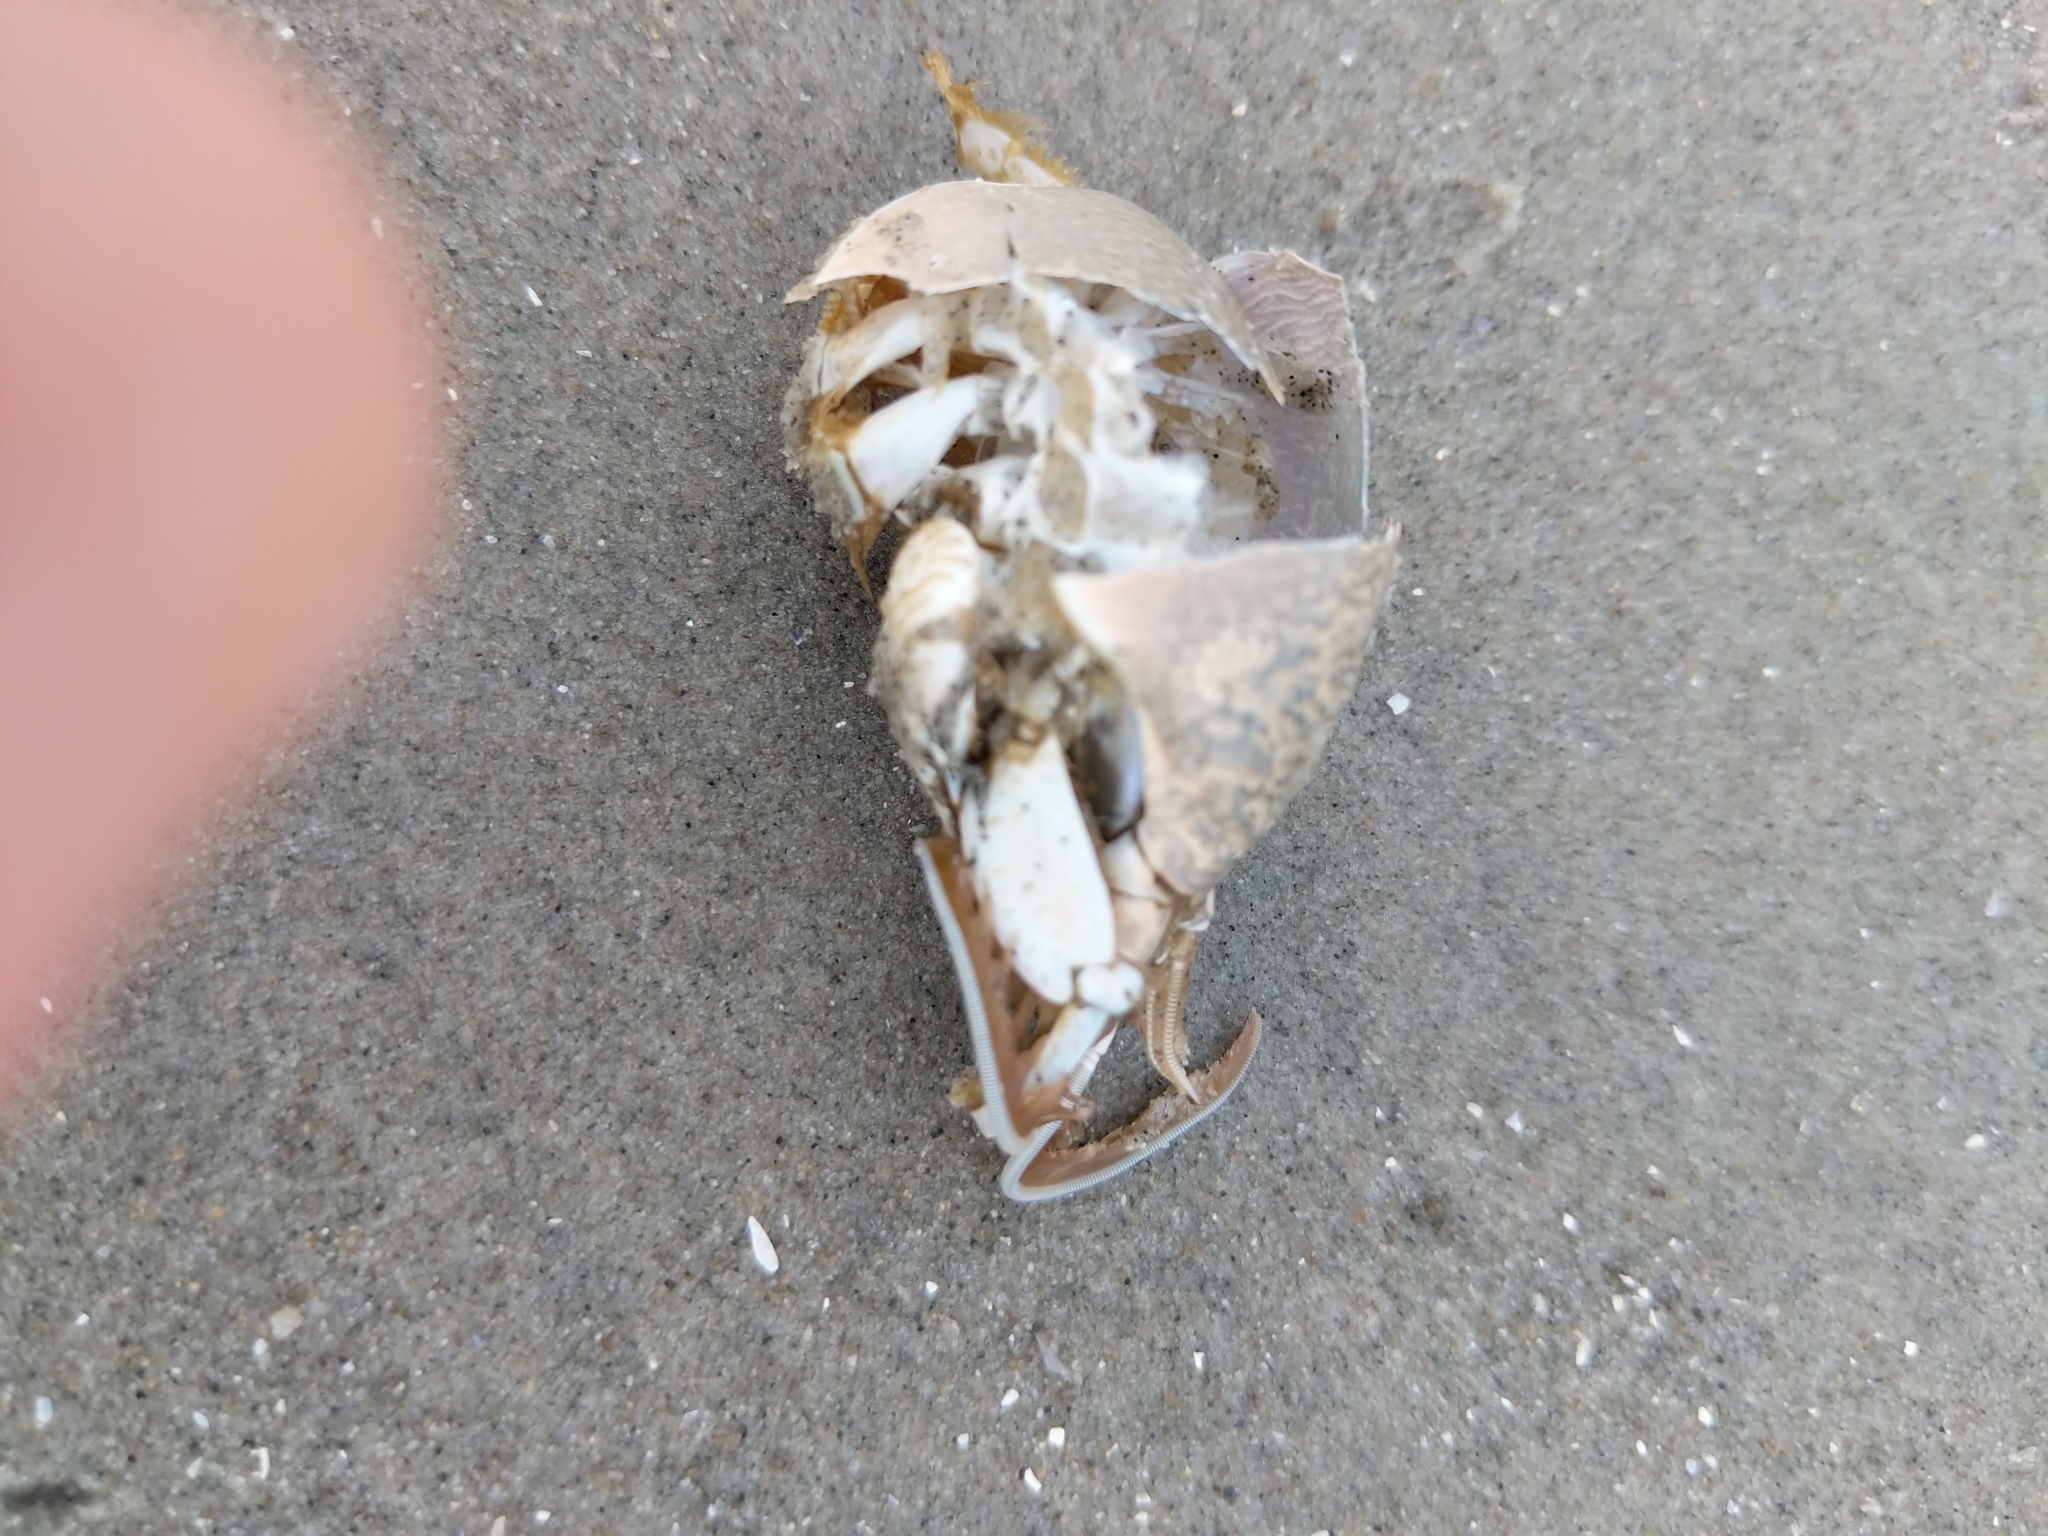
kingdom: Animalia
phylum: Arthropoda
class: Malacostraca
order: Decapoda
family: Hippidae
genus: Emerita
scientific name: Emerita talpoida
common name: Atlantic sand crab
